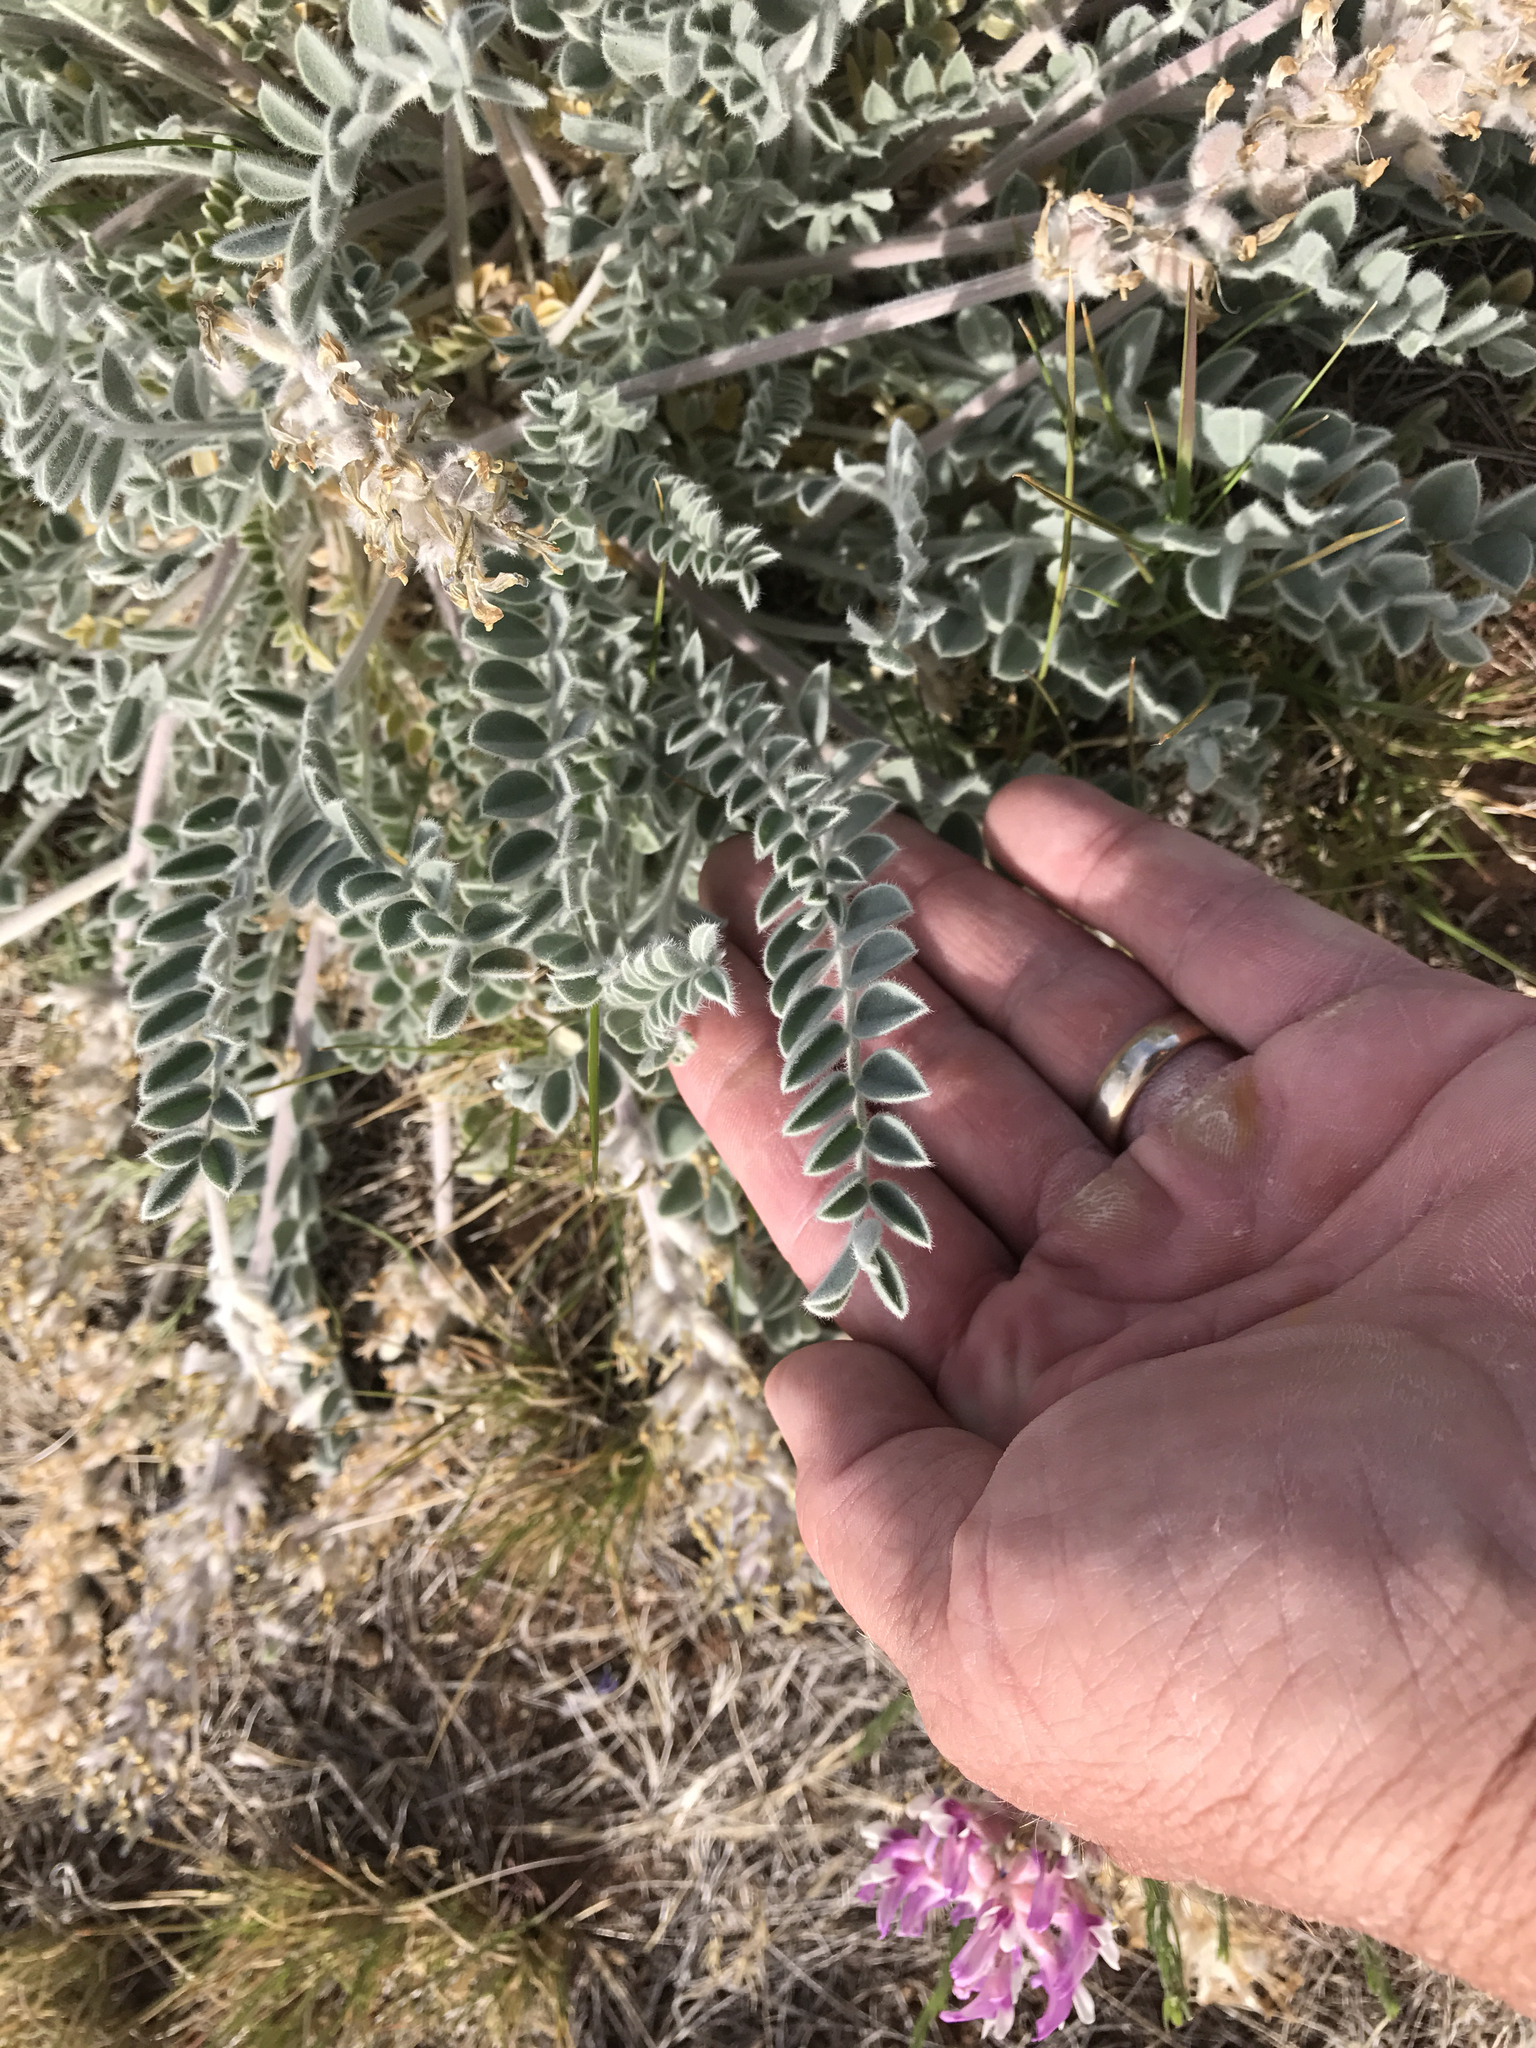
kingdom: Plantae
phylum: Tracheophyta
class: Magnoliopsida
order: Fabales
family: Fabaceae
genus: Astragalus
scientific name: Astragalus mollissimus
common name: Woolly locoweed
